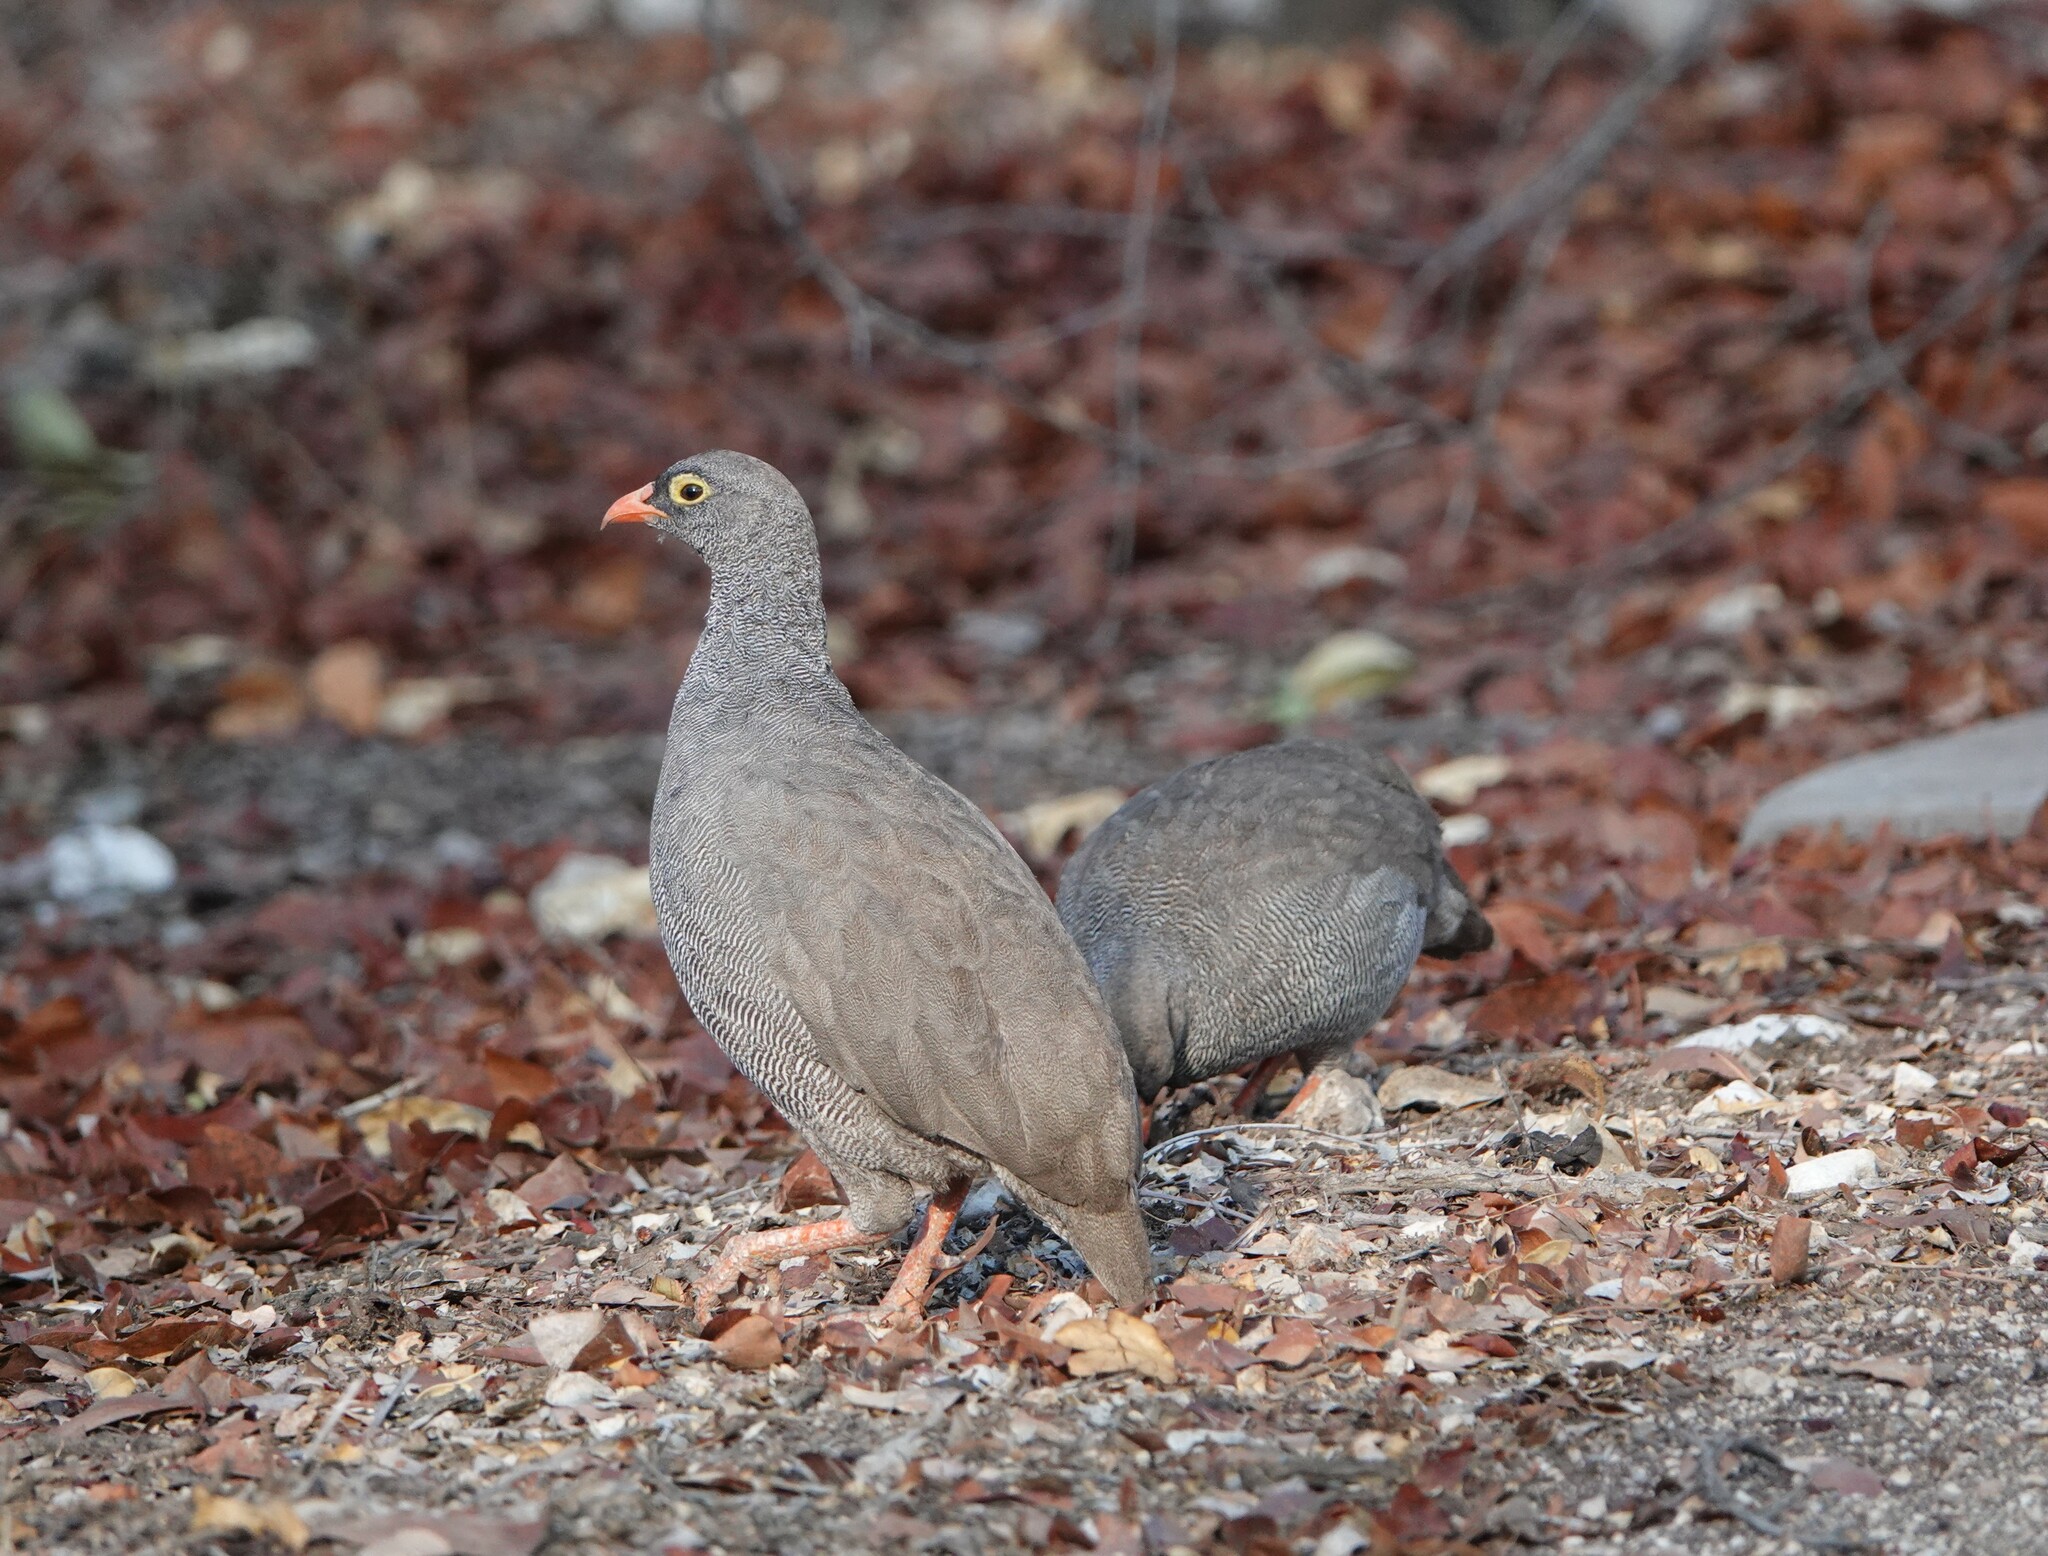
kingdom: Animalia
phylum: Chordata
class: Aves
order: Galliformes
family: Phasianidae
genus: Pternistis
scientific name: Pternistis adspersus
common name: Red-billed spurfowl
